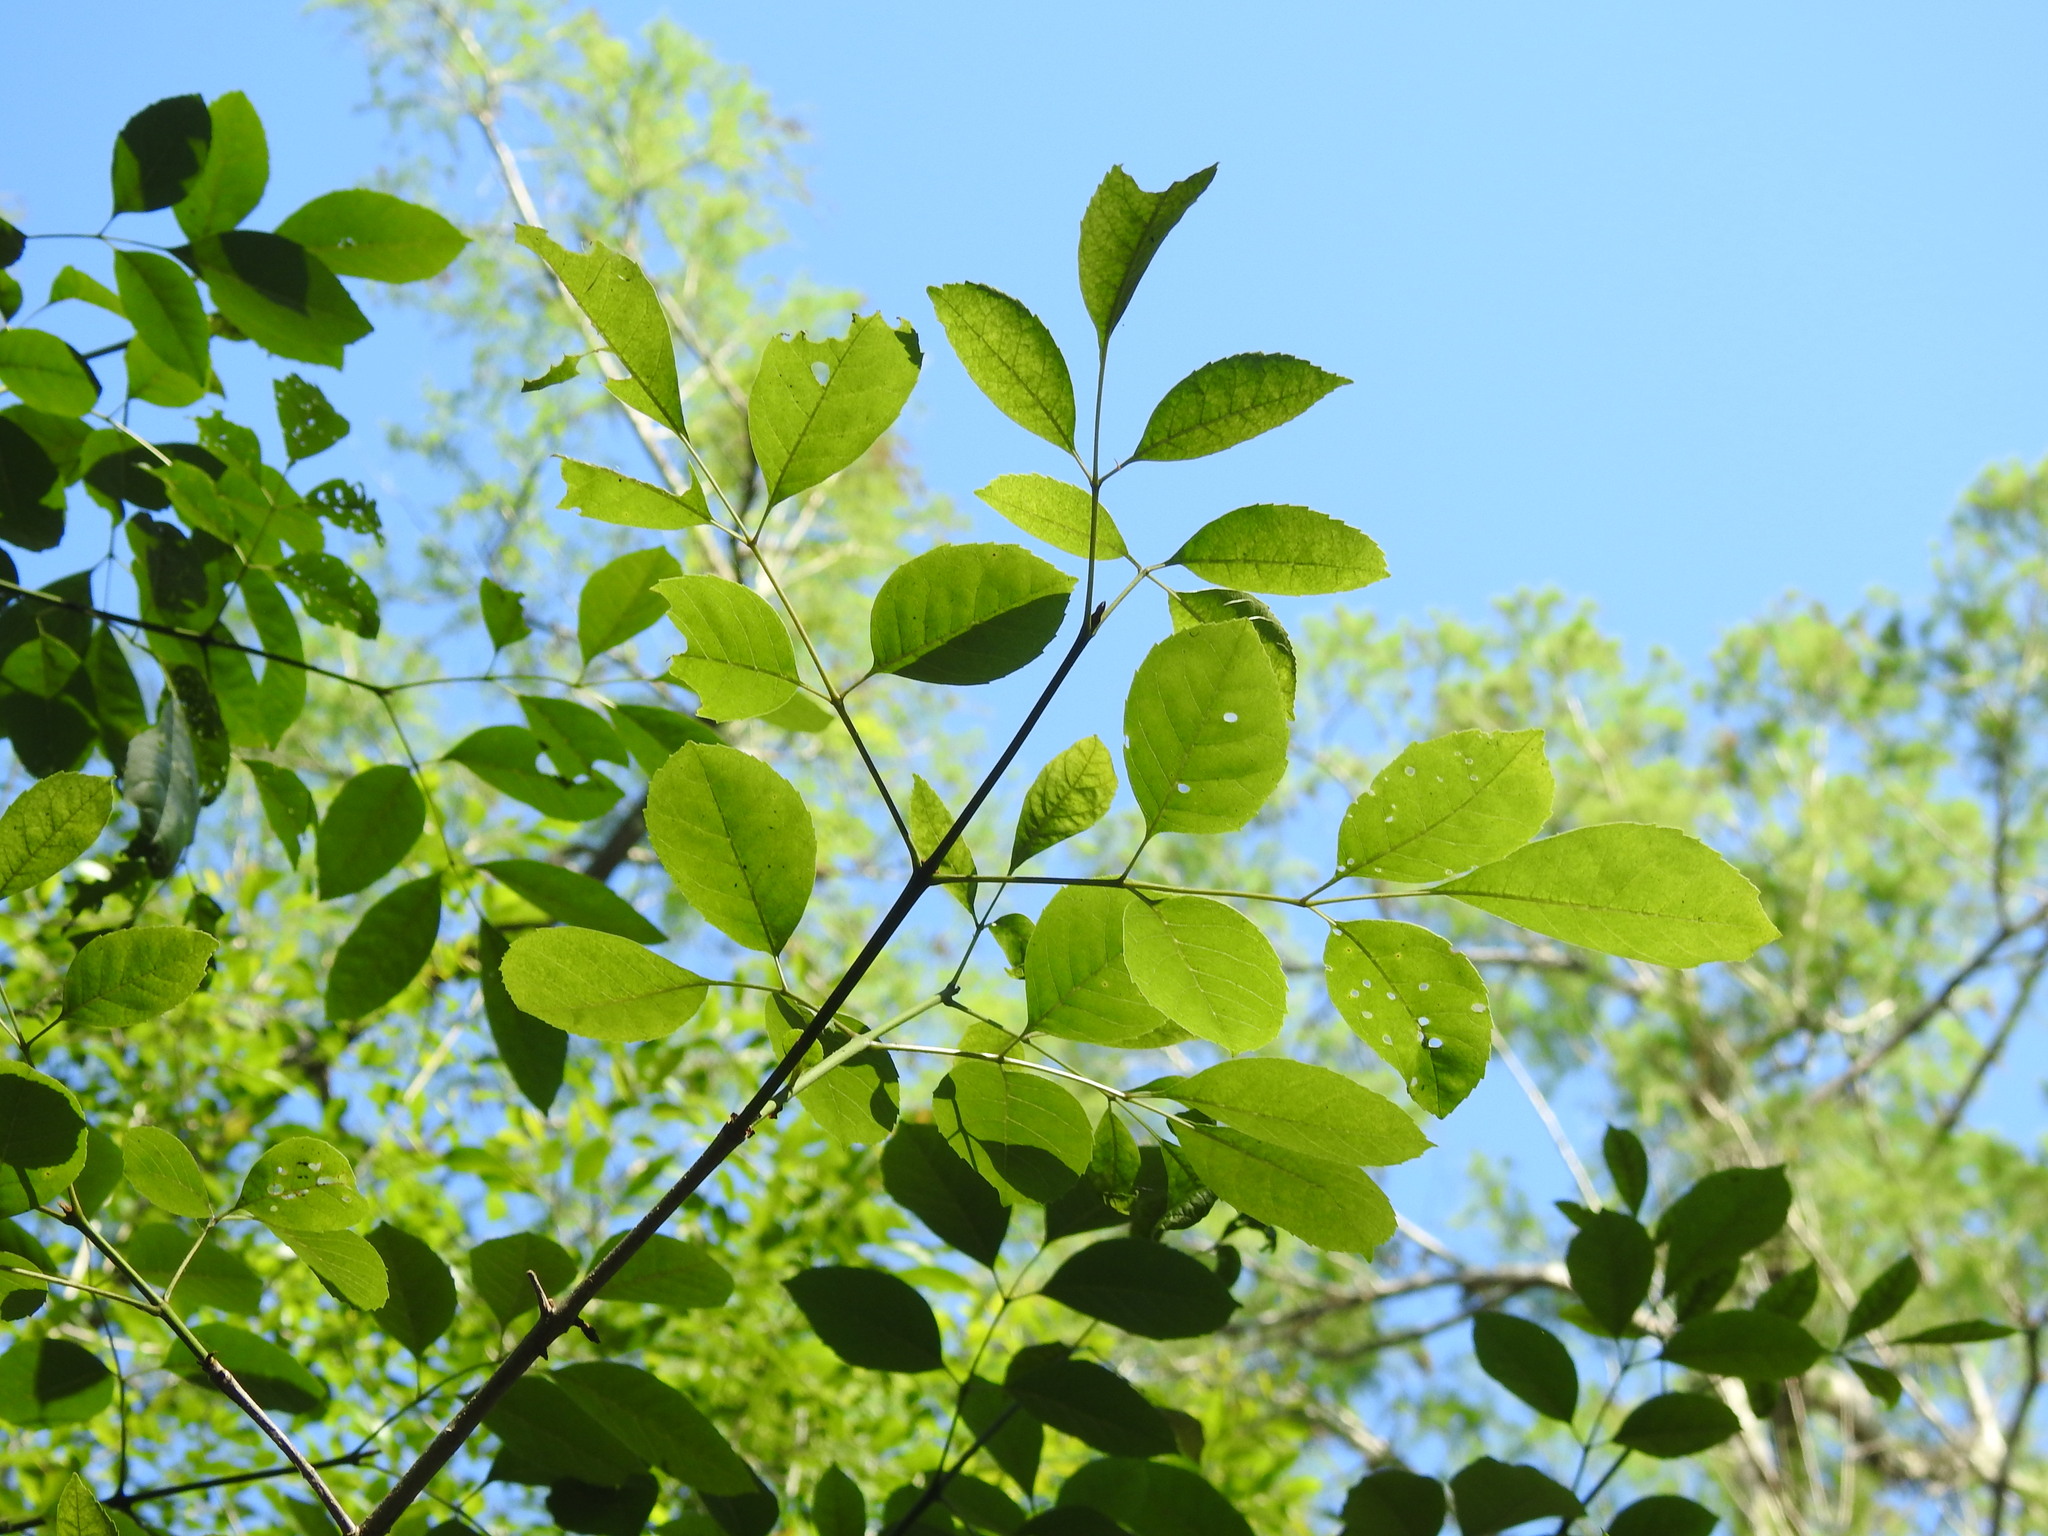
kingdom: Plantae
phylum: Tracheophyta
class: Magnoliopsida
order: Lamiales
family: Oleaceae
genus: Fraxinus
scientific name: Fraxinus caroliniana
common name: Carolina ash
